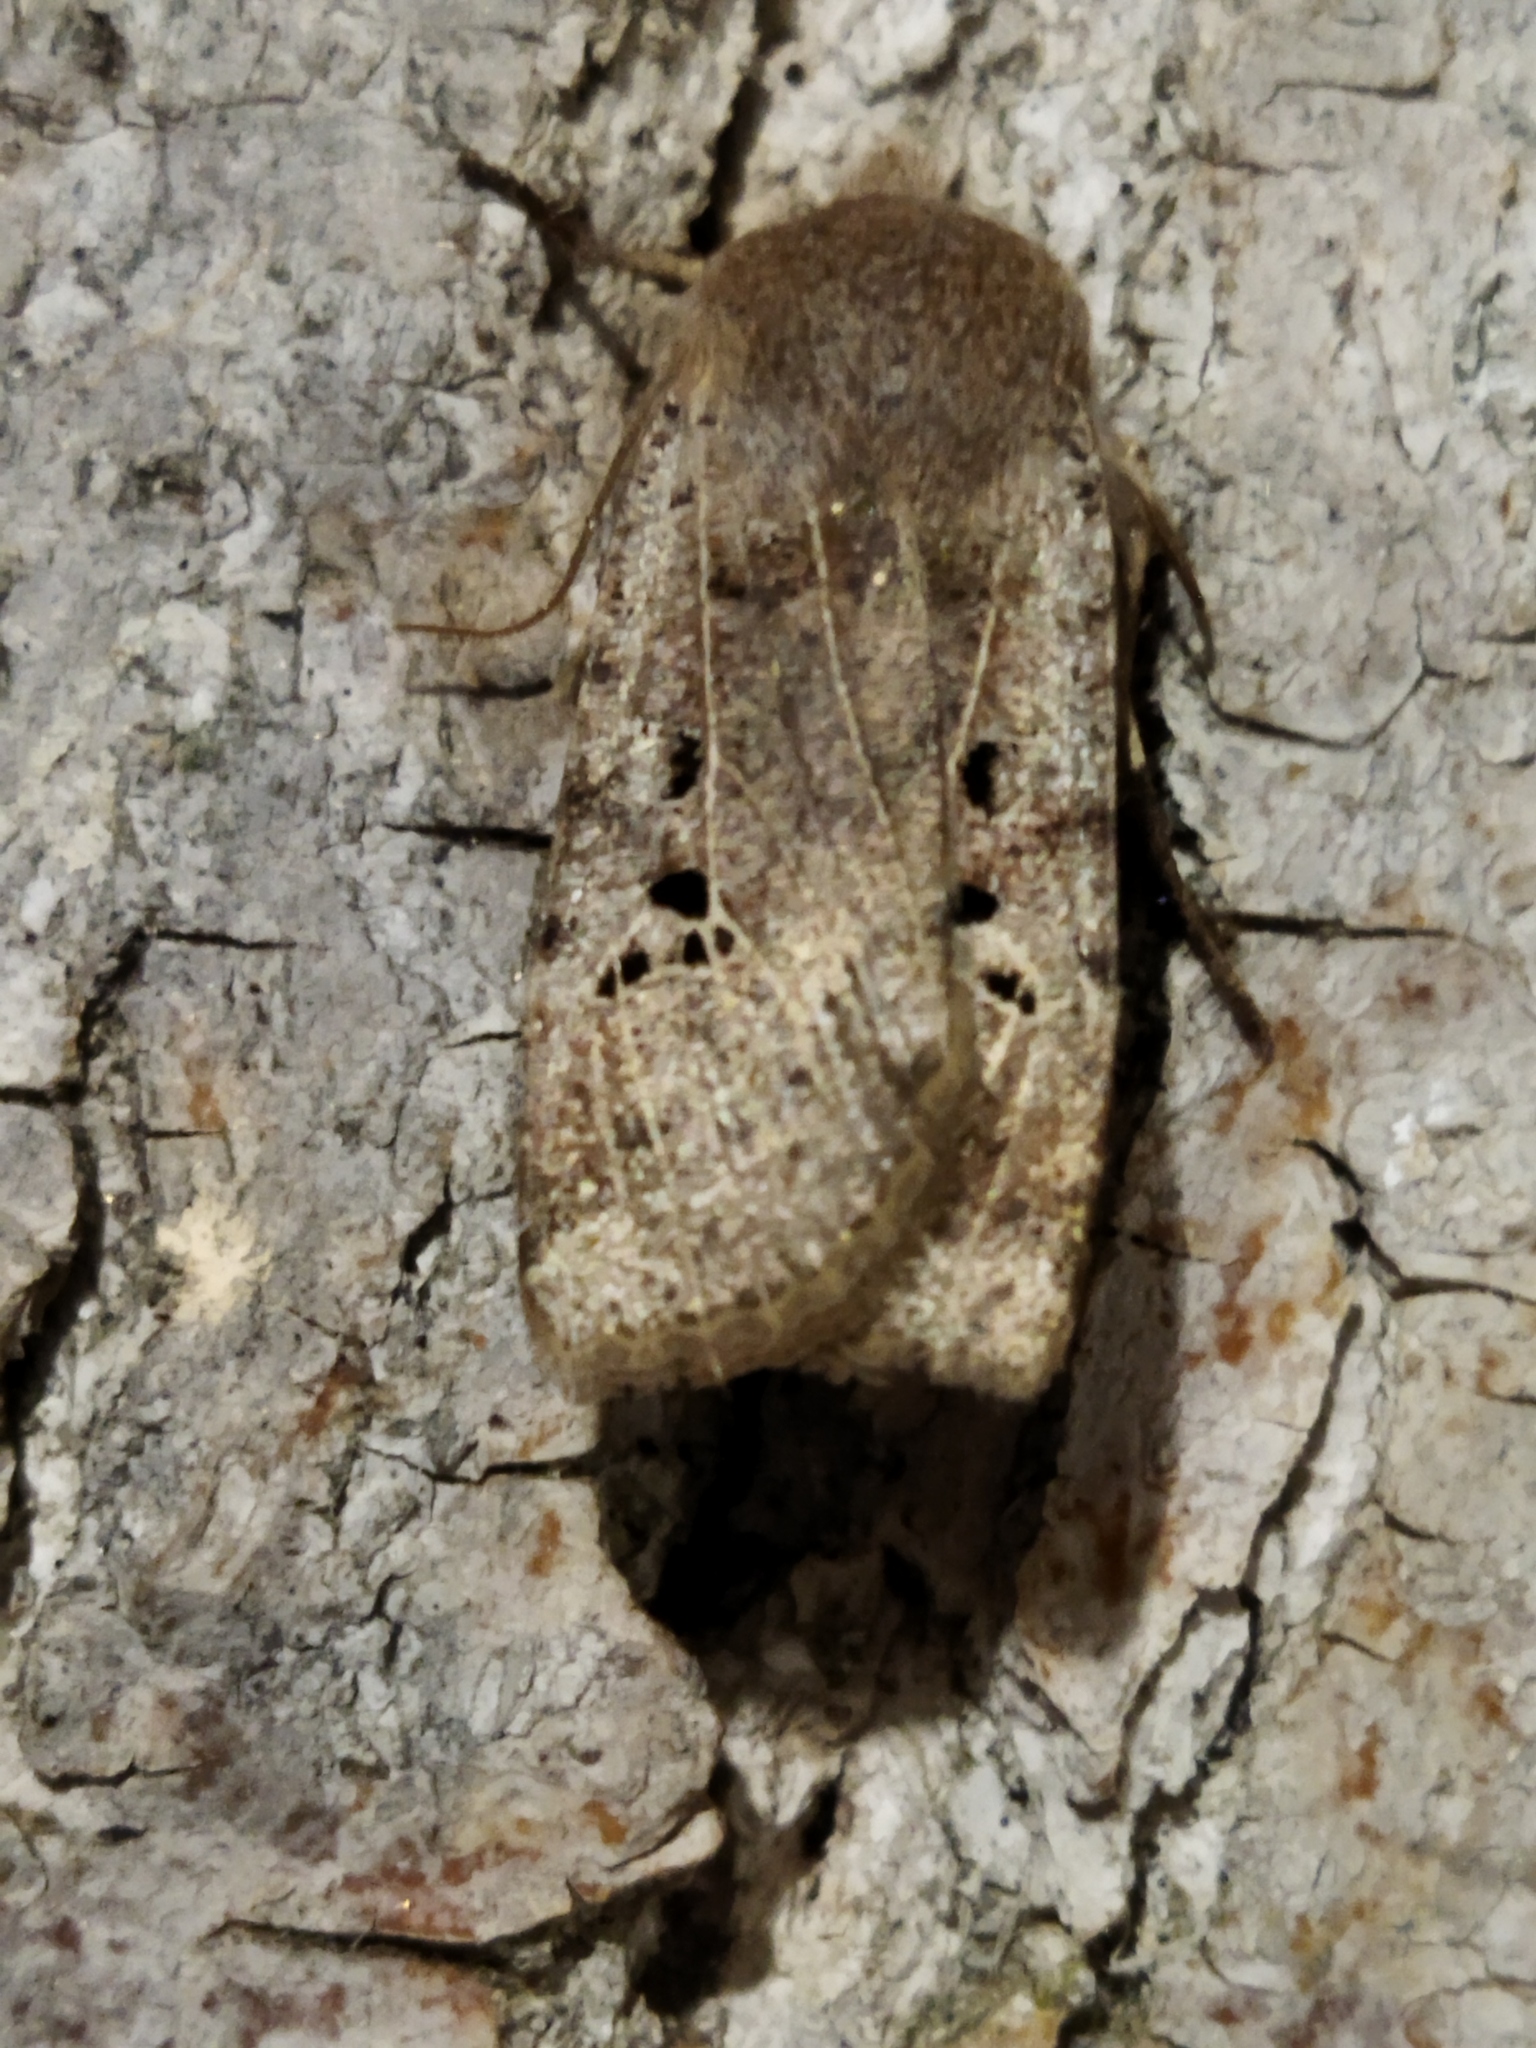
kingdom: Animalia
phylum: Arthropoda
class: Insecta
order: Lepidoptera
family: Noctuidae
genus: Conistra
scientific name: Conistra rubiginosa
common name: Black-spotted chestnut
